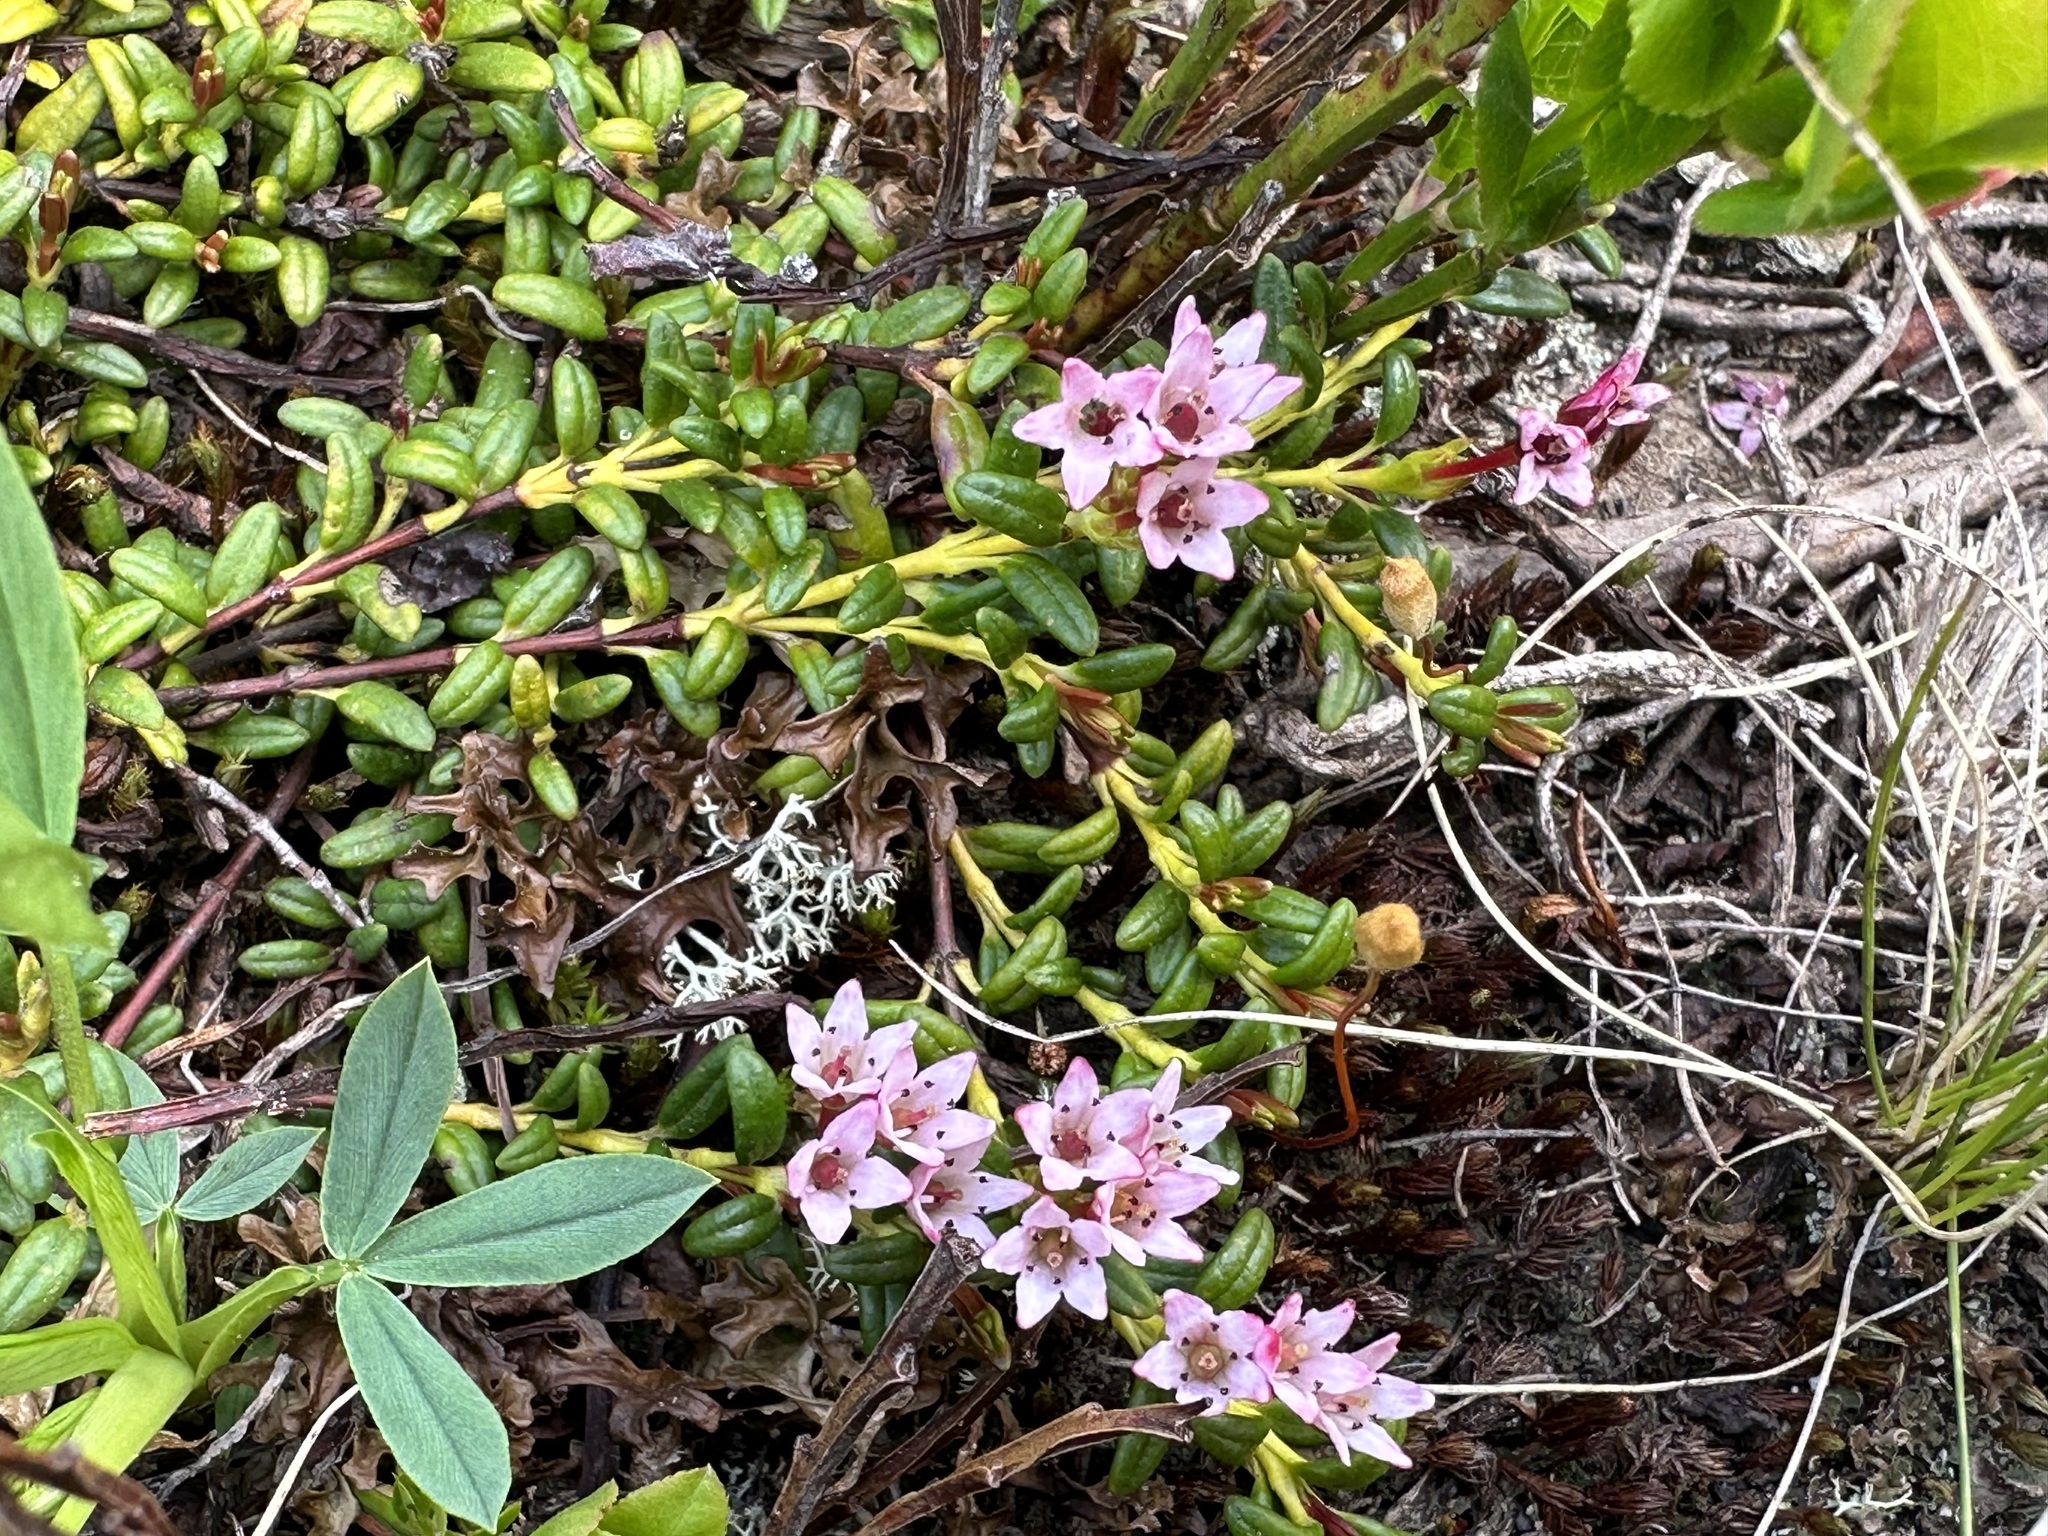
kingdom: Plantae
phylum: Tracheophyta
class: Magnoliopsida
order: Ericales
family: Ericaceae
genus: Kalmia
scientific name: Kalmia procumbens
